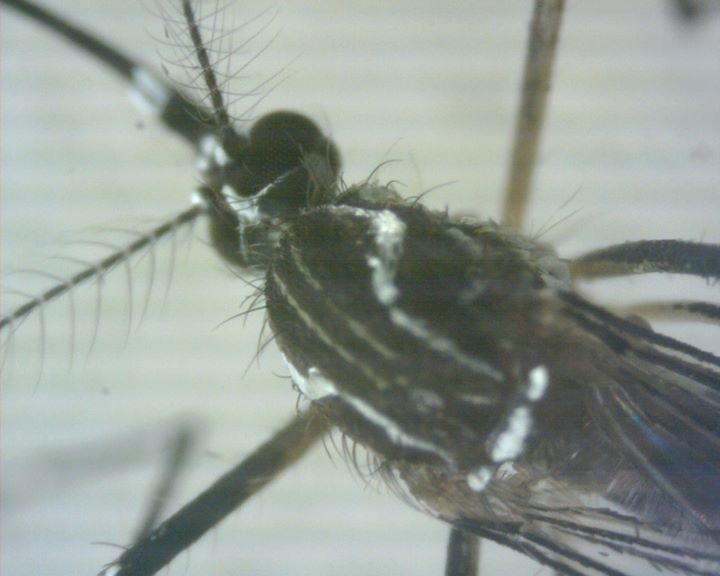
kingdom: Animalia
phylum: Arthropoda
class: Insecta
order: Diptera
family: Culicidae
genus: Aedes
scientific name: Aedes aegypti
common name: Yellow fever mosquito
